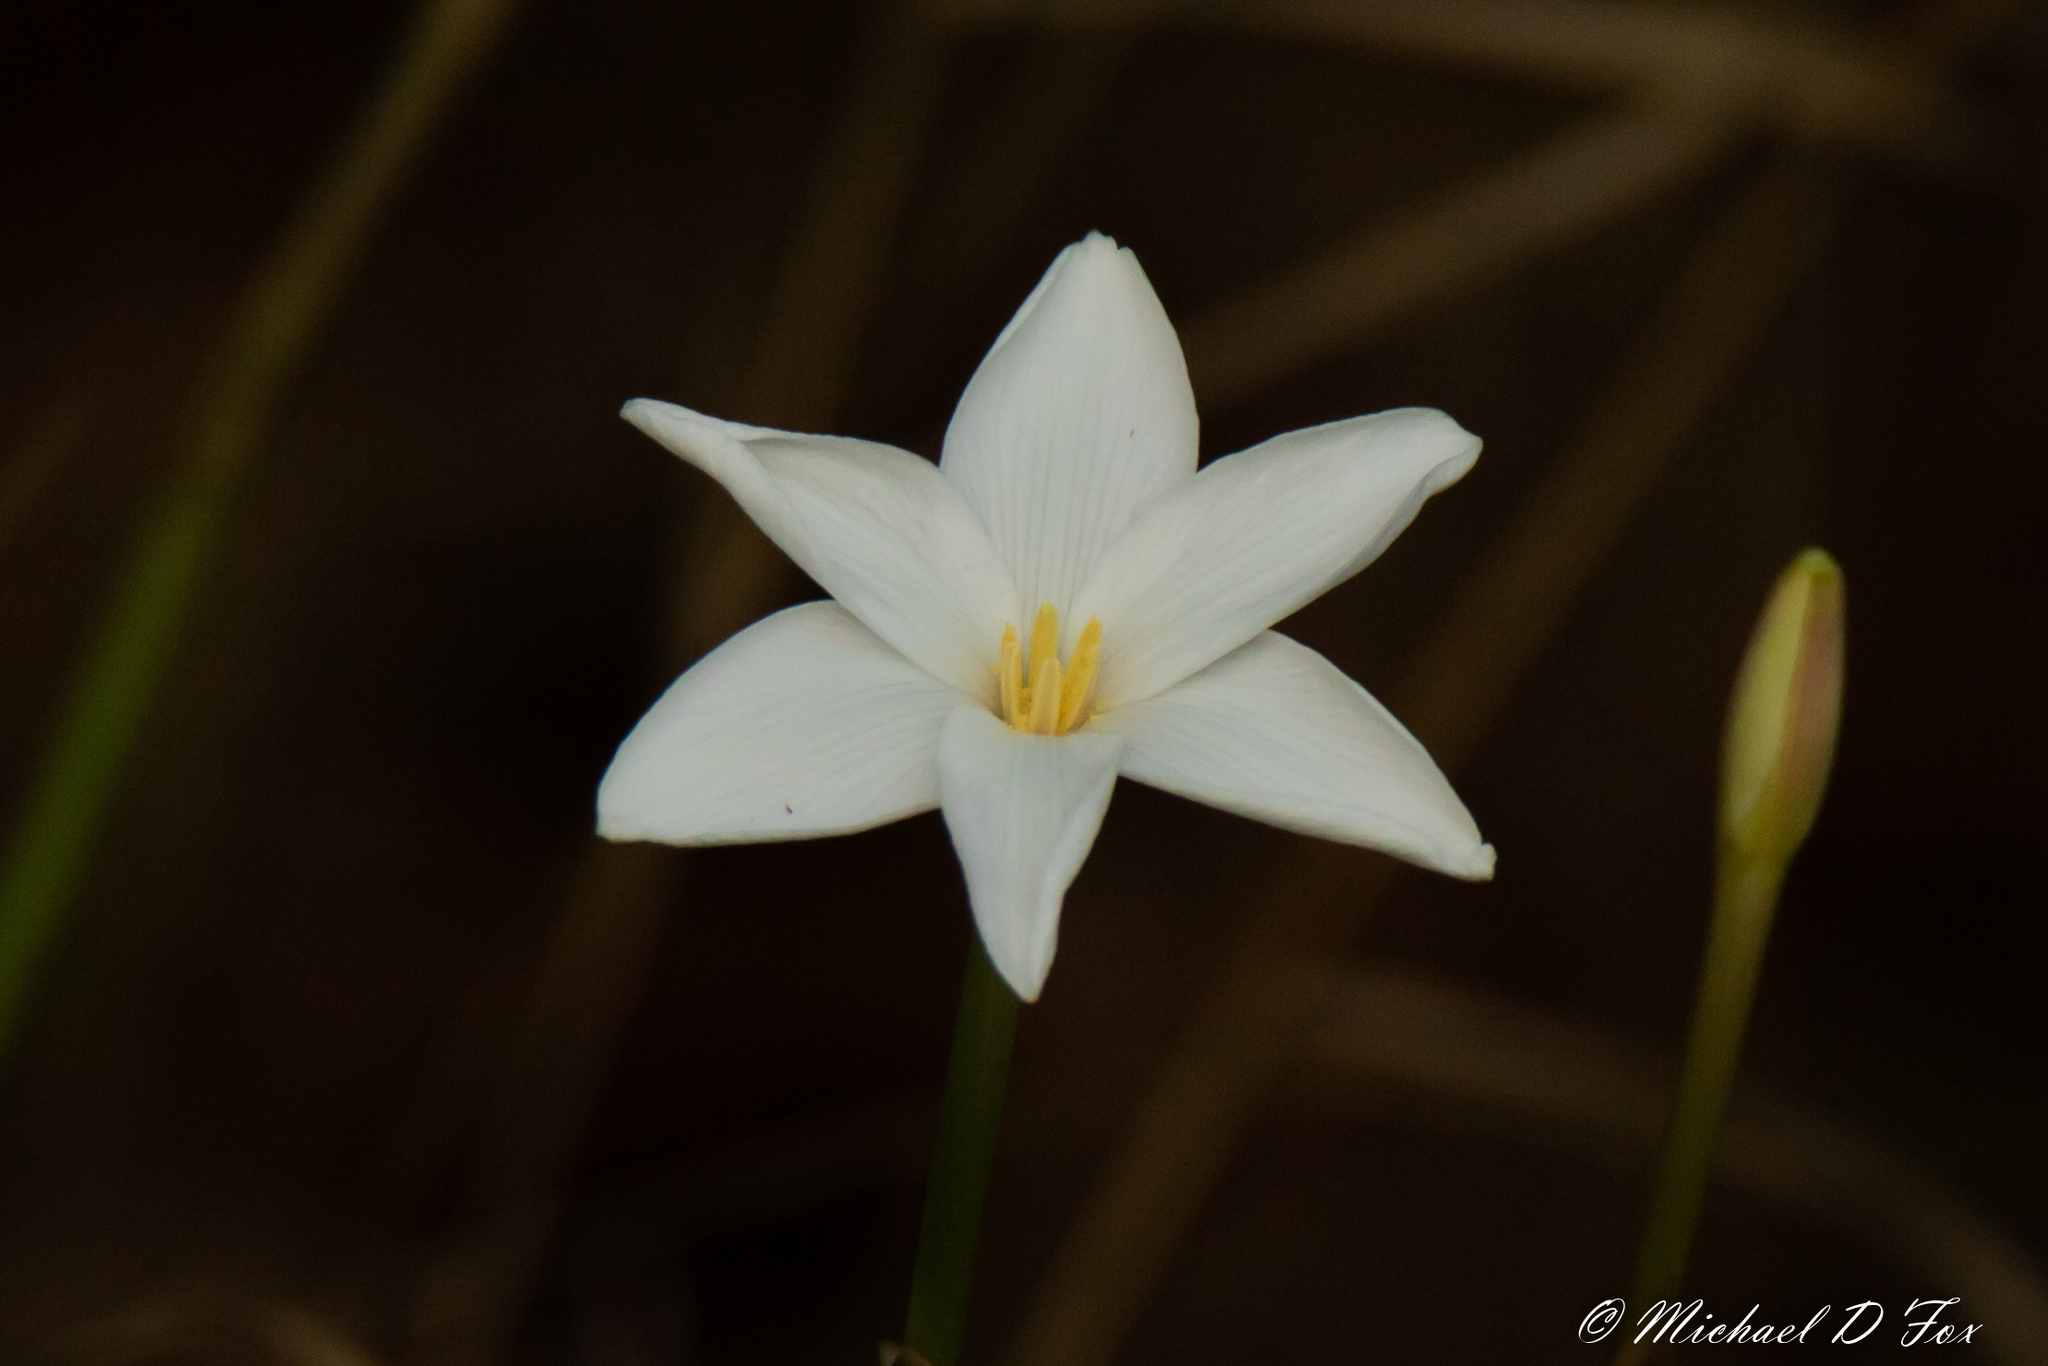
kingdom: Plantae
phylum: Tracheophyta
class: Liliopsida
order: Asparagales
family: Amaryllidaceae
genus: Zephyranthes
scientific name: Zephyranthes chlorosolen
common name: Evening rain-lily
